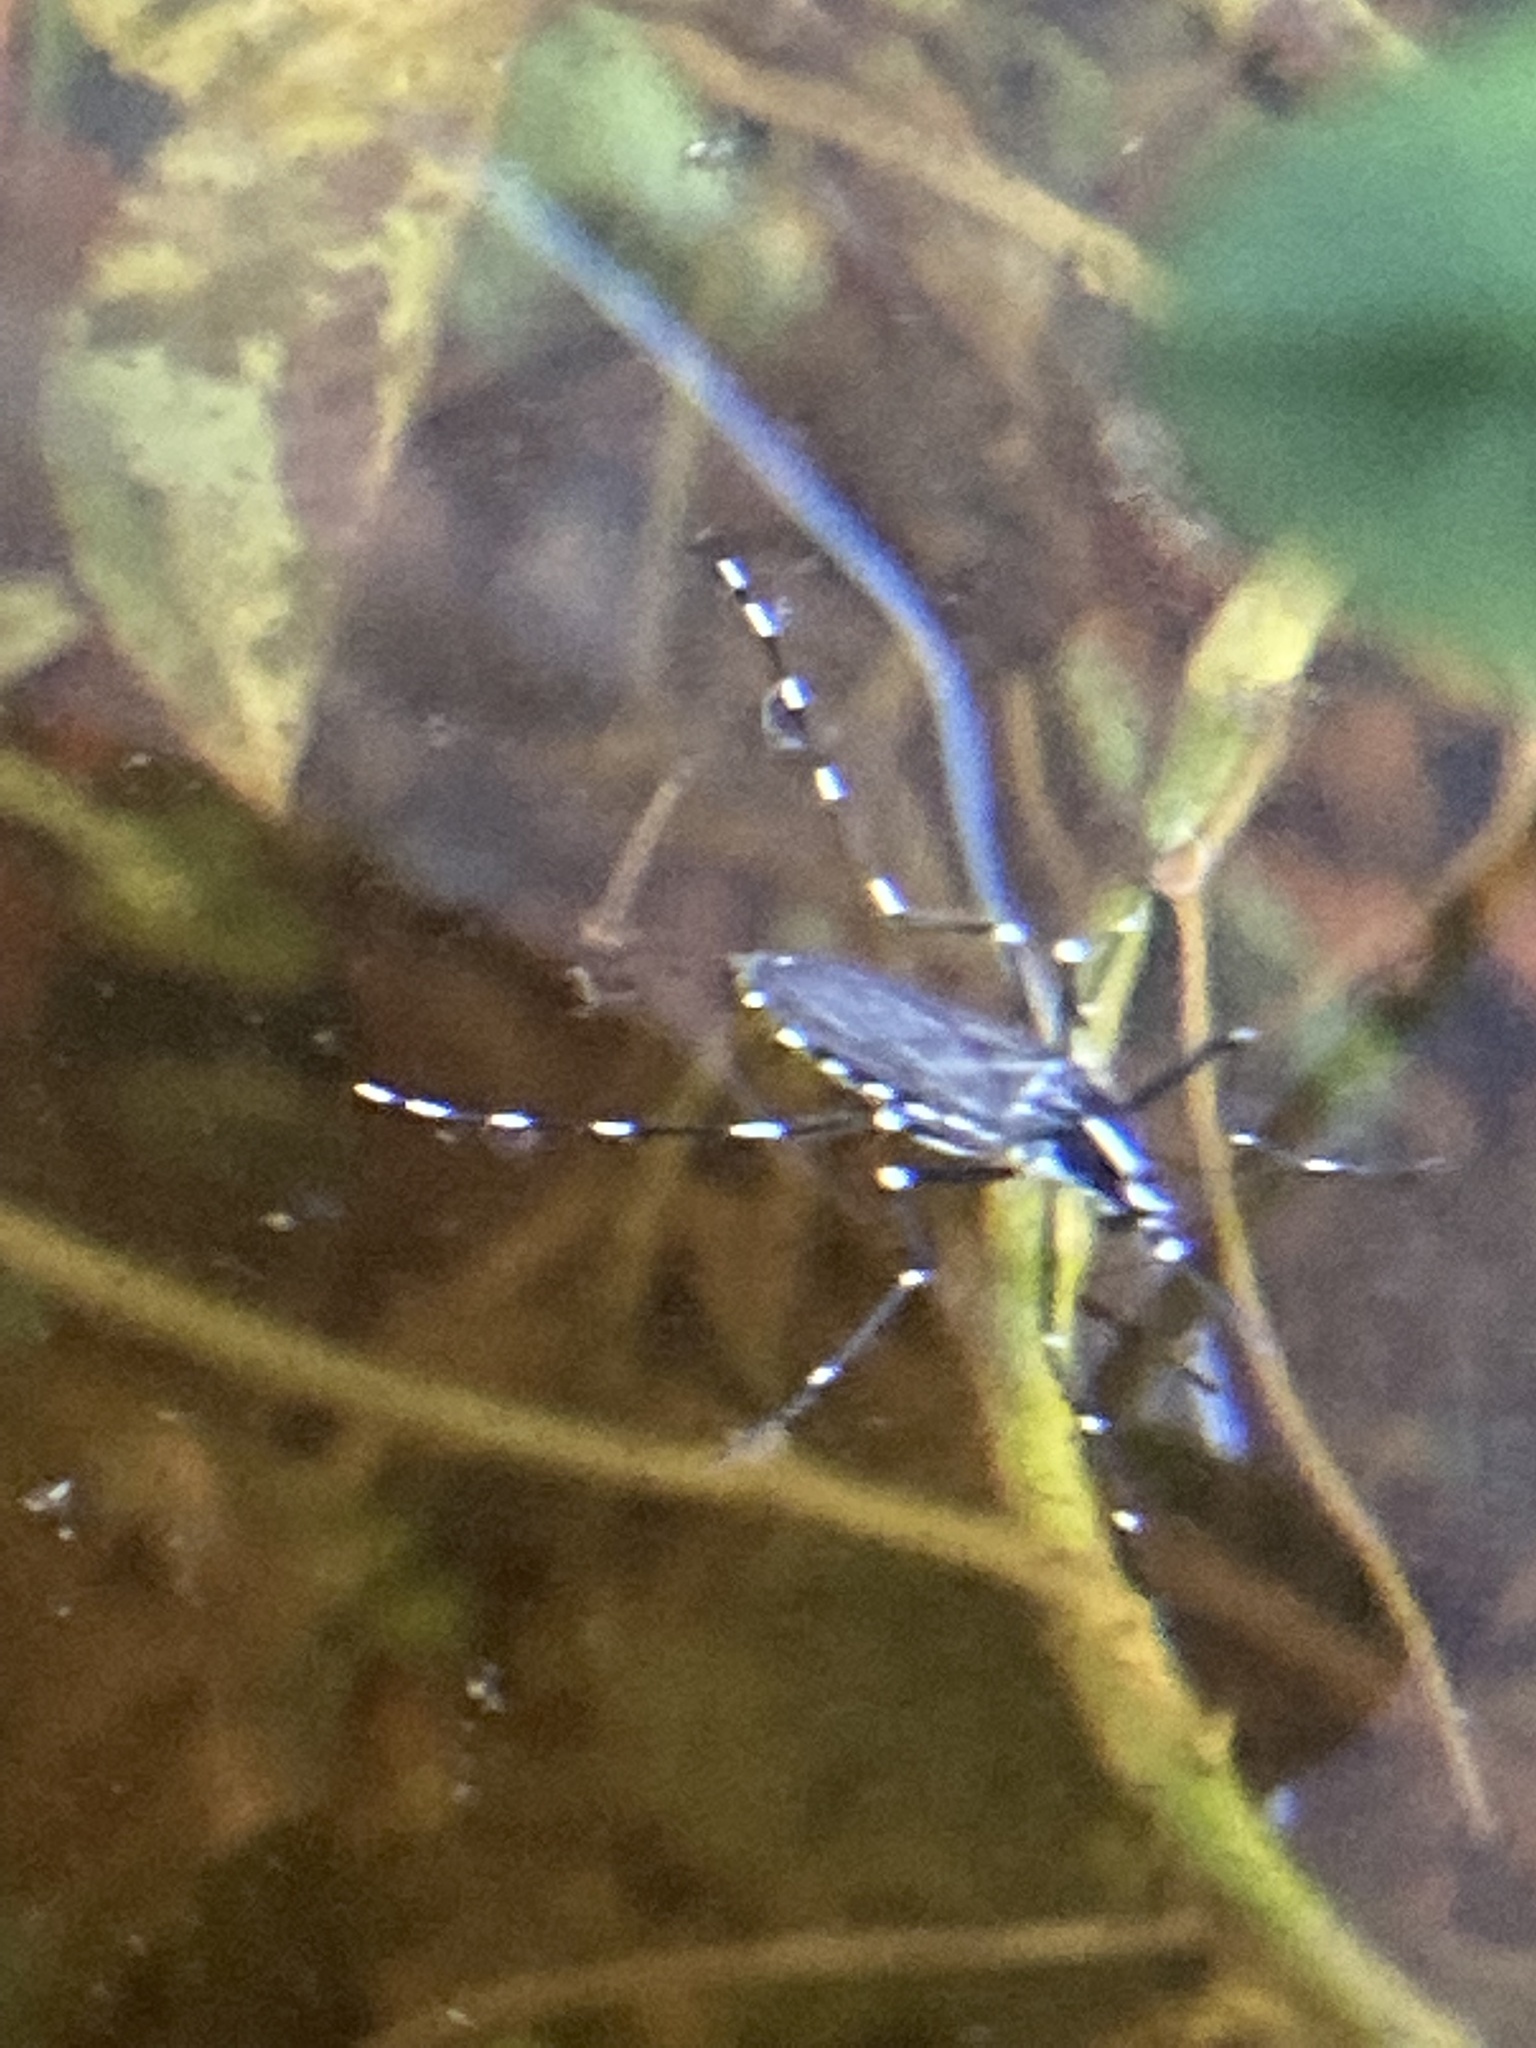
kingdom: Animalia
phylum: Arthropoda
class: Insecta
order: Diptera
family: Culicidae
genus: Aedes
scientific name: Aedes albopictus
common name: Tiger mosquito
